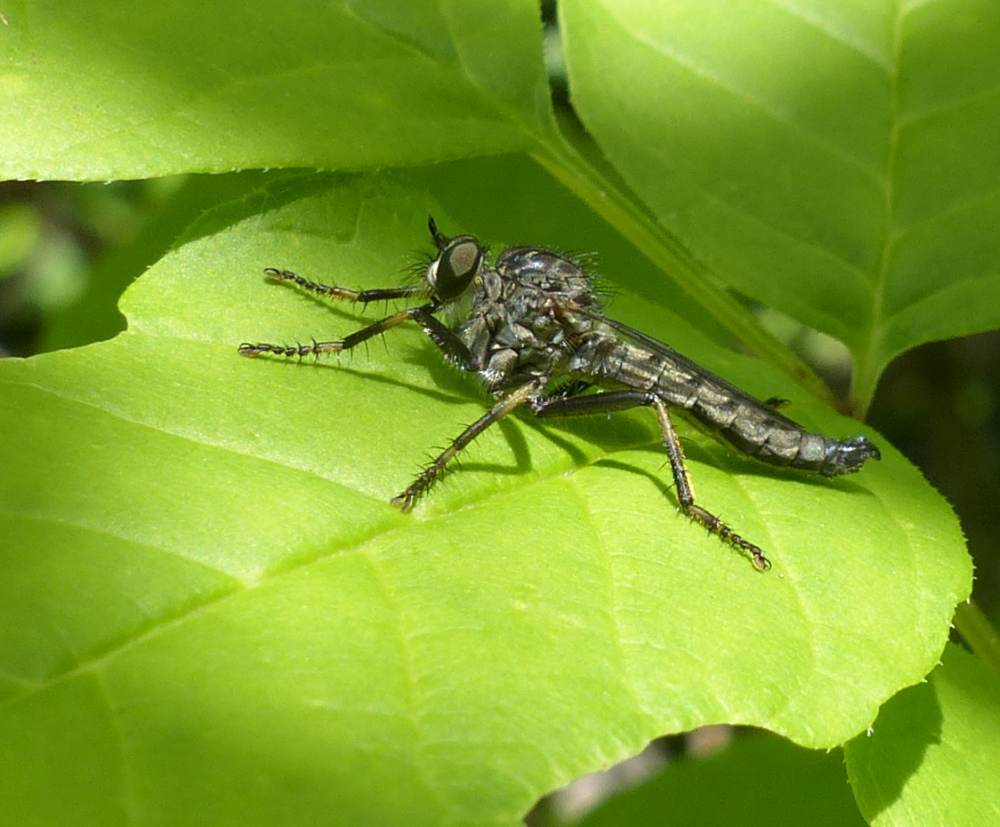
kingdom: Animalia
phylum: Arthropoda
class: Insecta
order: Diptera
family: Asilidae
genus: Machimus
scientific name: Machimus notatus
